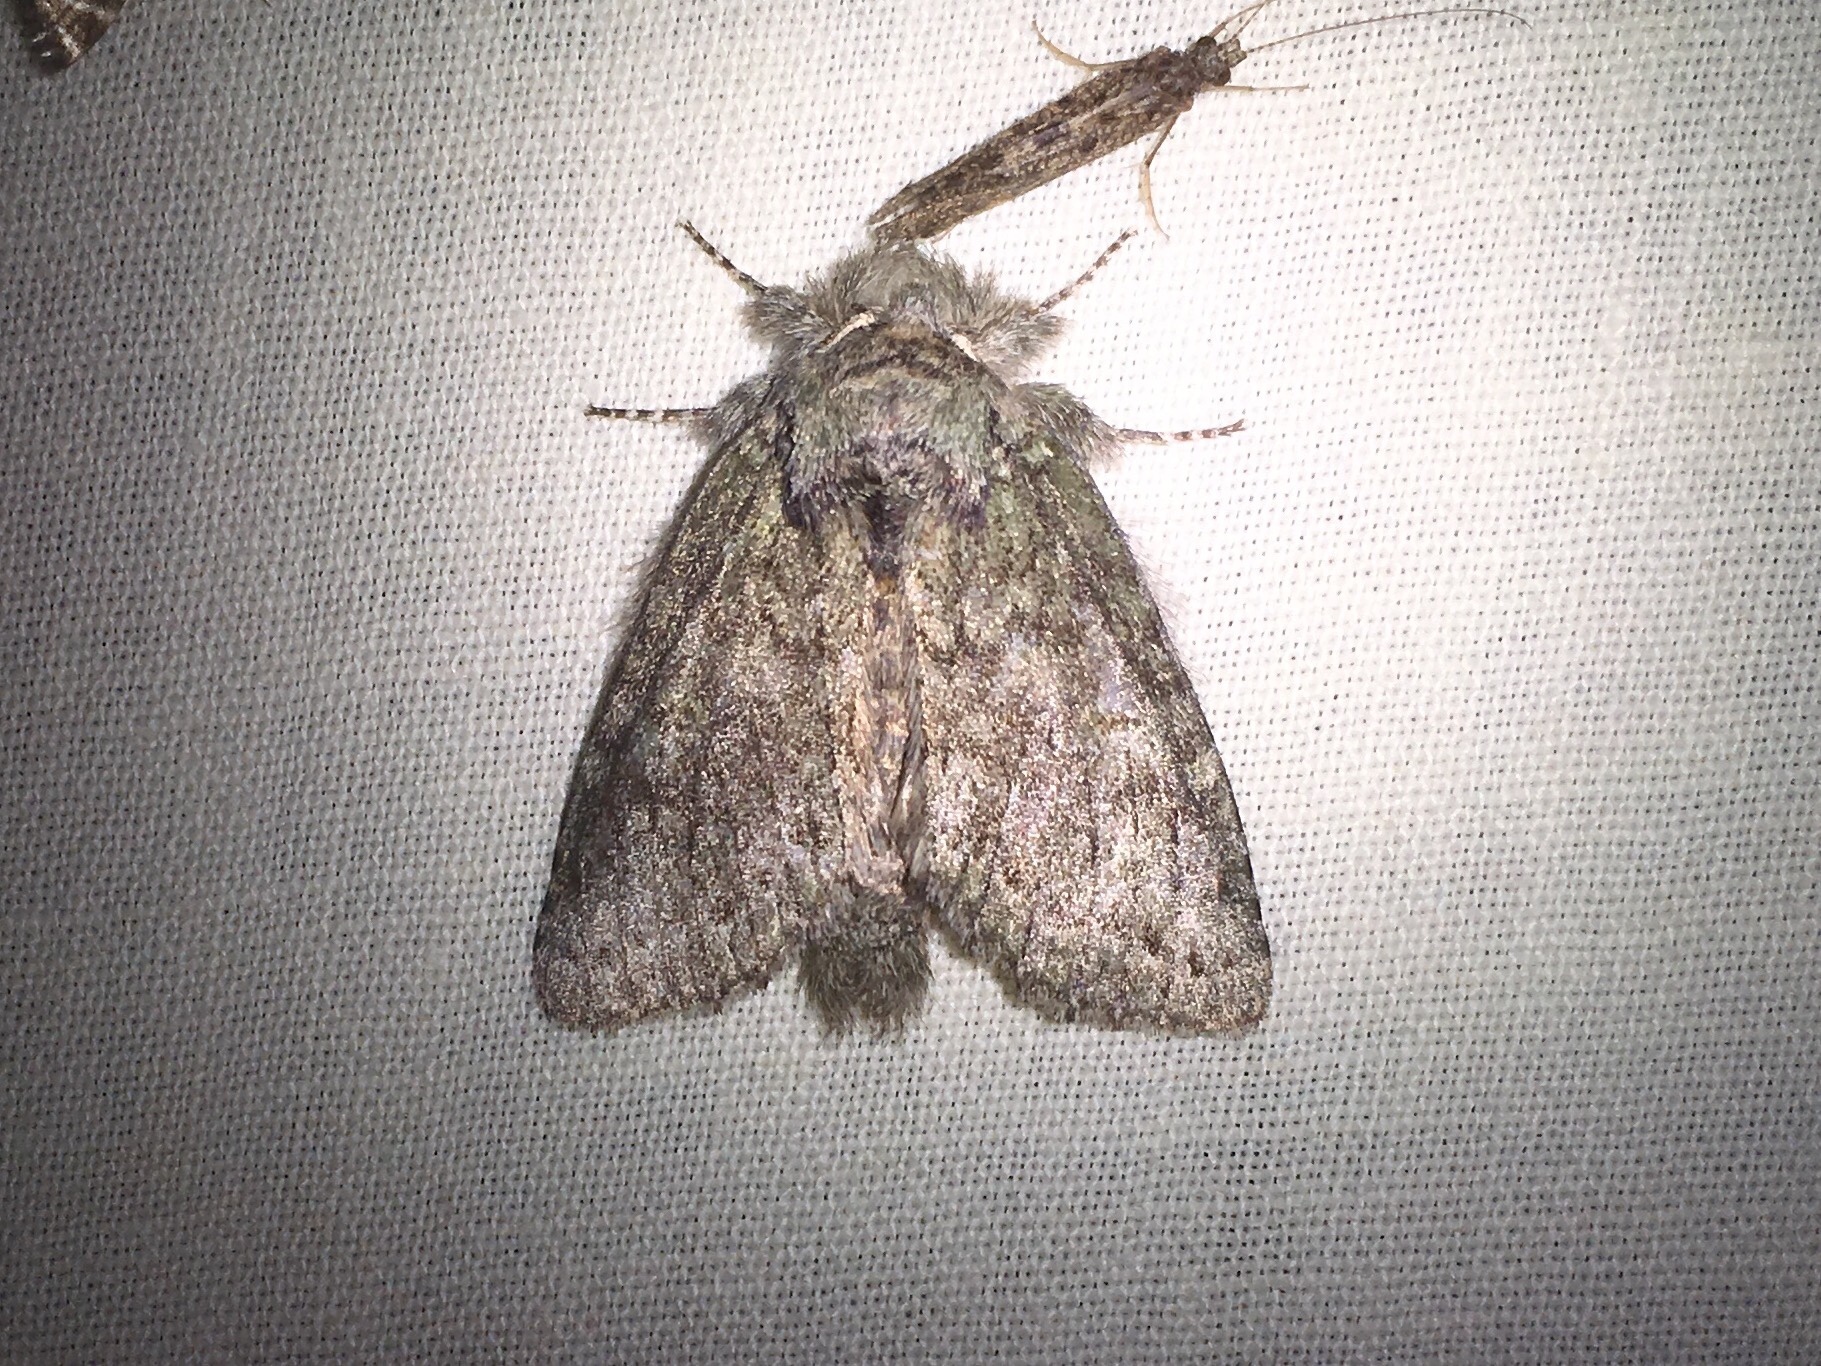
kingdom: Animalia
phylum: Arthropoda
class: Insecta
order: Lepidoptera
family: Notodontidae
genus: Disphragis
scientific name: Disphragis Cecrita guttivitta
